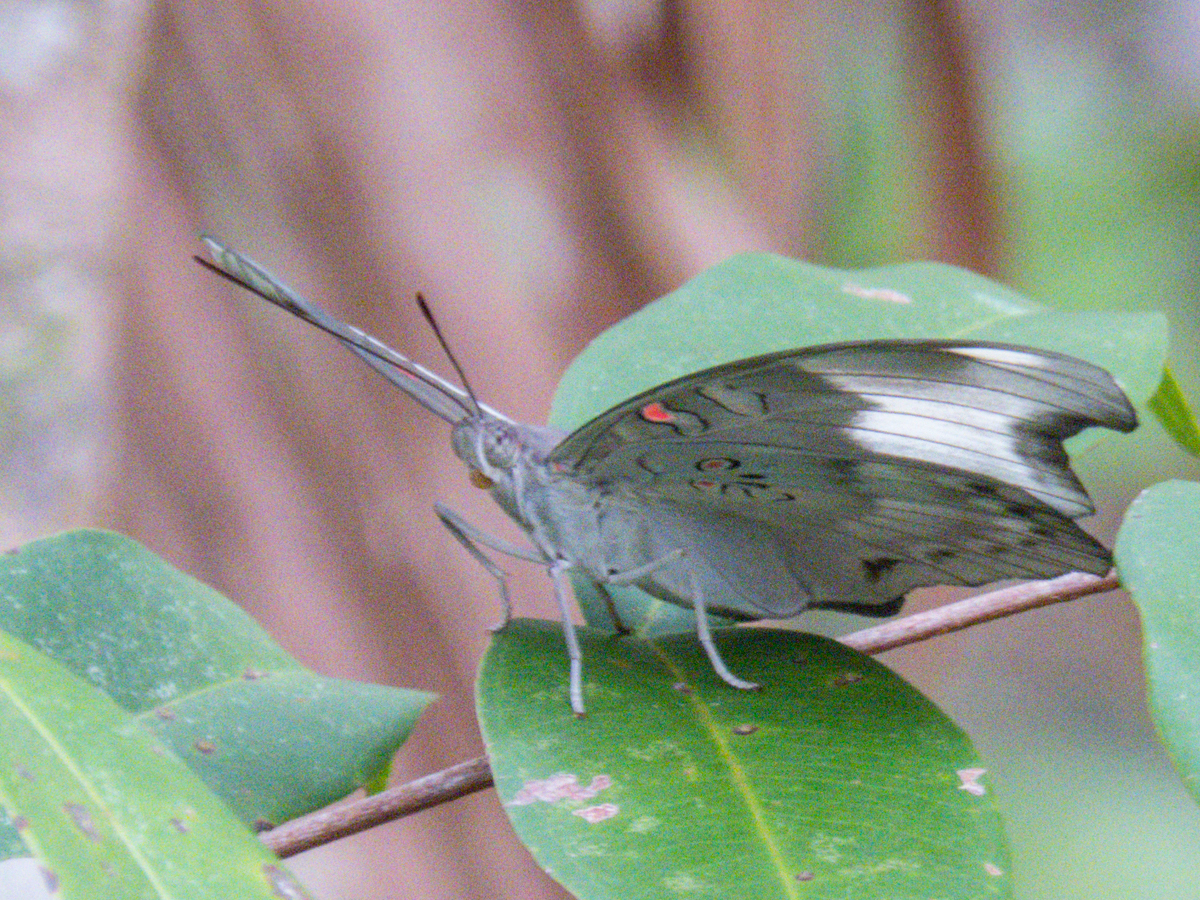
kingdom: Animalia
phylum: Arthropoda
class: Insecta
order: Lepidoptera
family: Nymphalidae
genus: Euthalia
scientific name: Euthalia Dophla evelina
